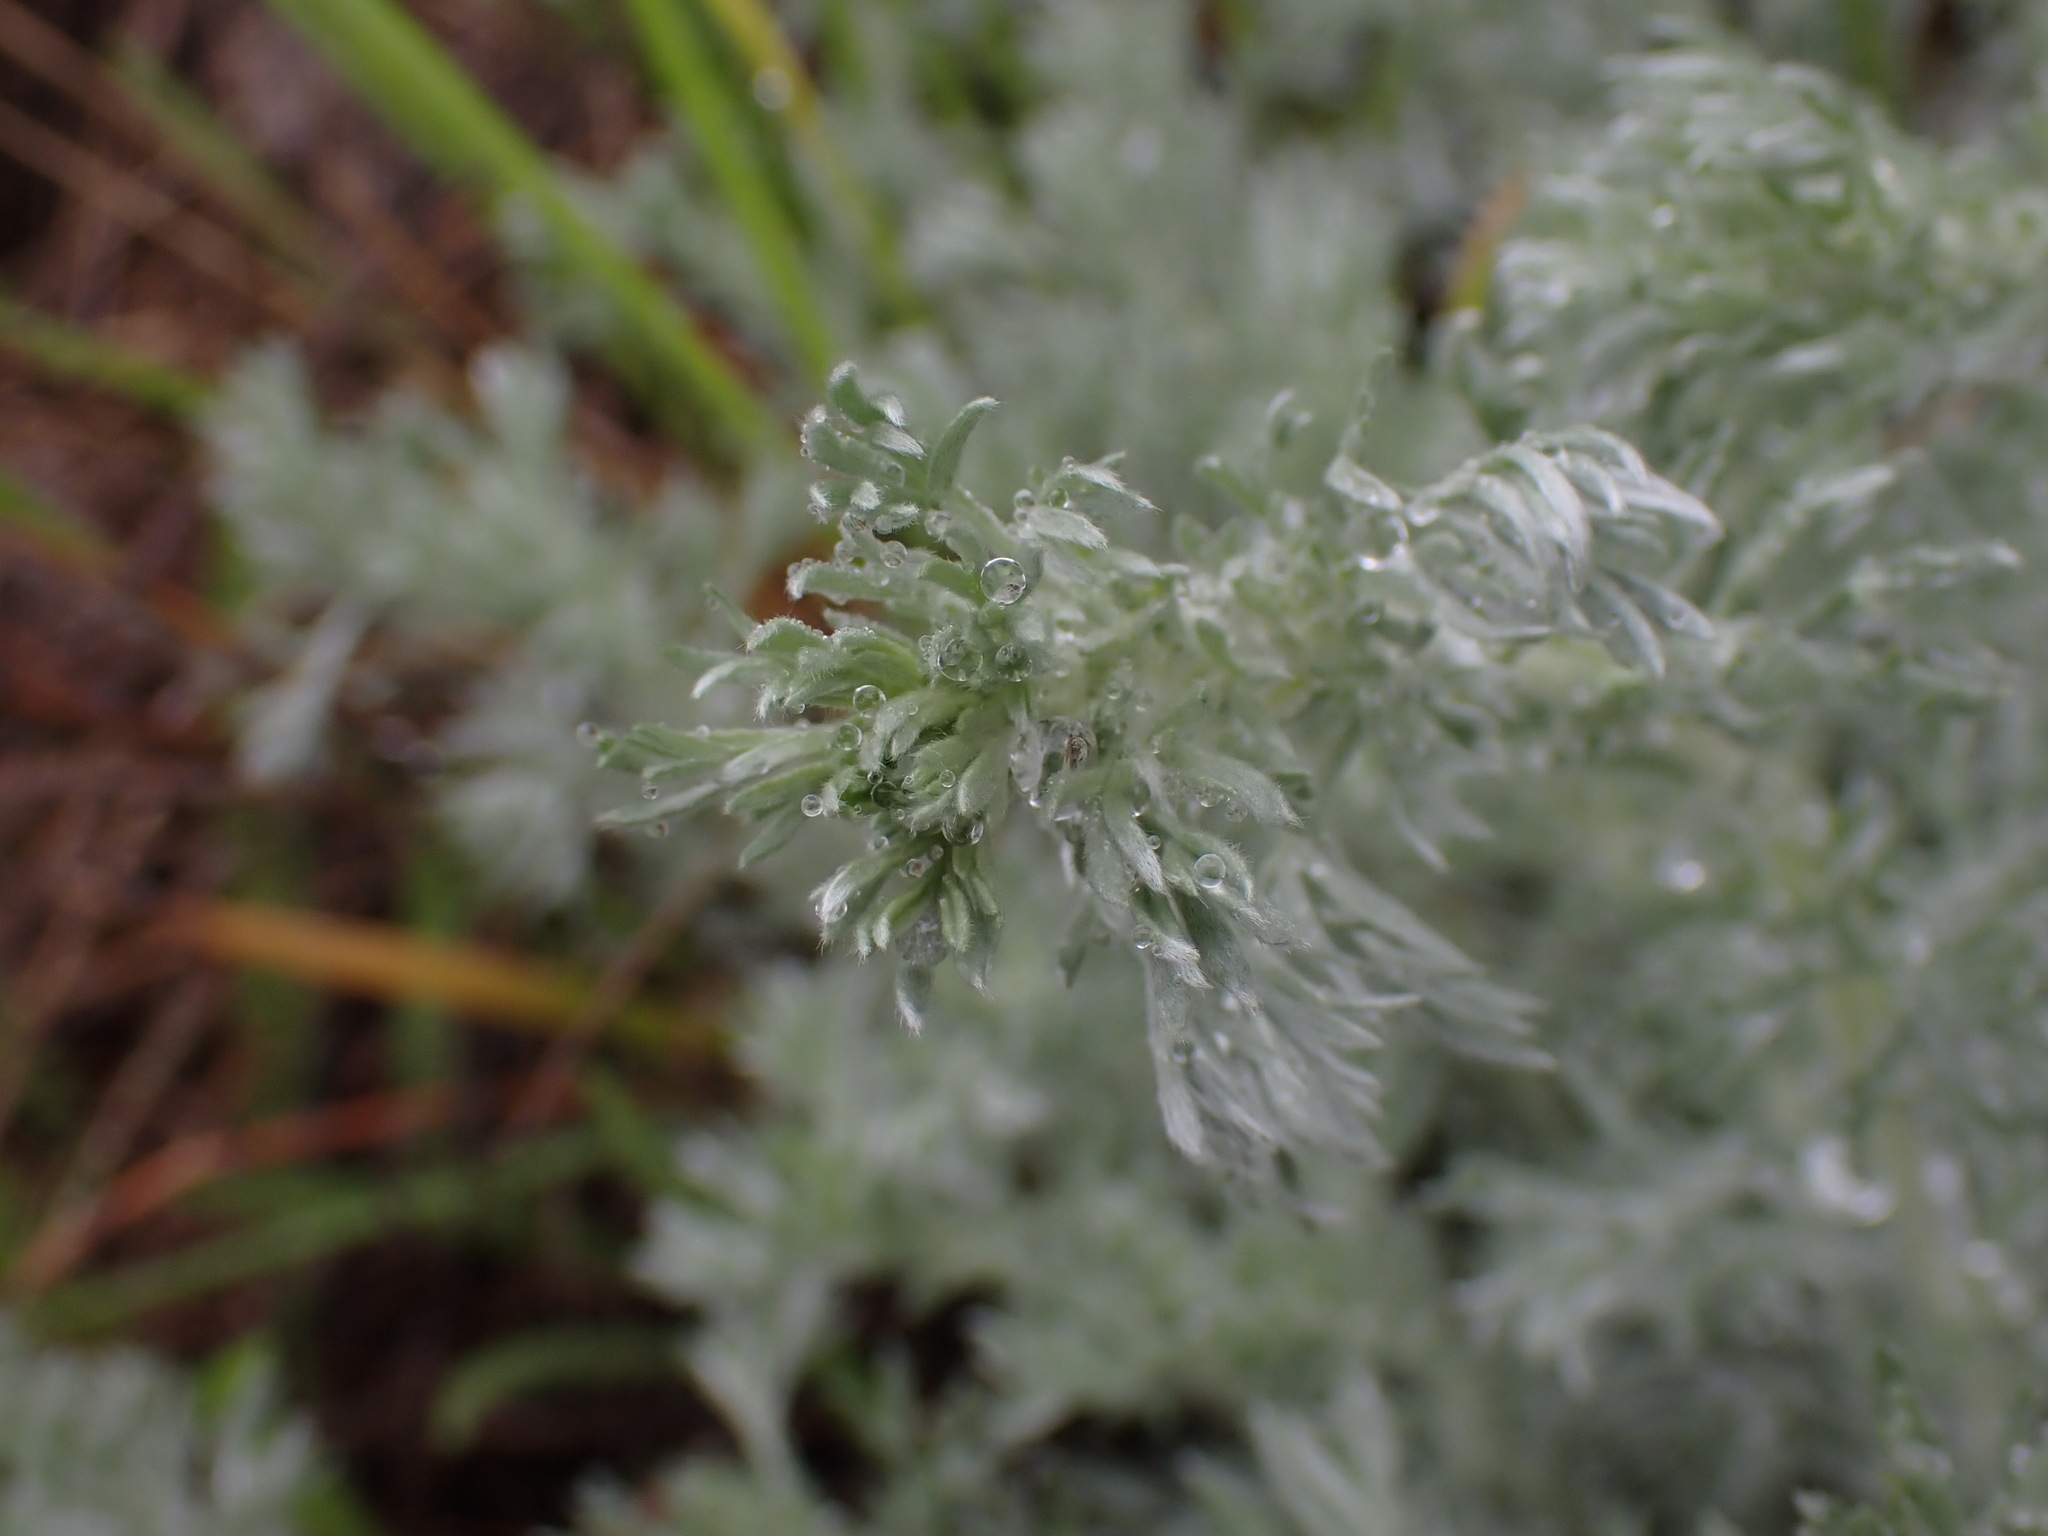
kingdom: Plantae
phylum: Tracheophyta
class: Magnoliopsida
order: Asterales
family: Asteraceae
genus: Artemisia
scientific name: Artemisia frigida
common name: Prairie sagewort
